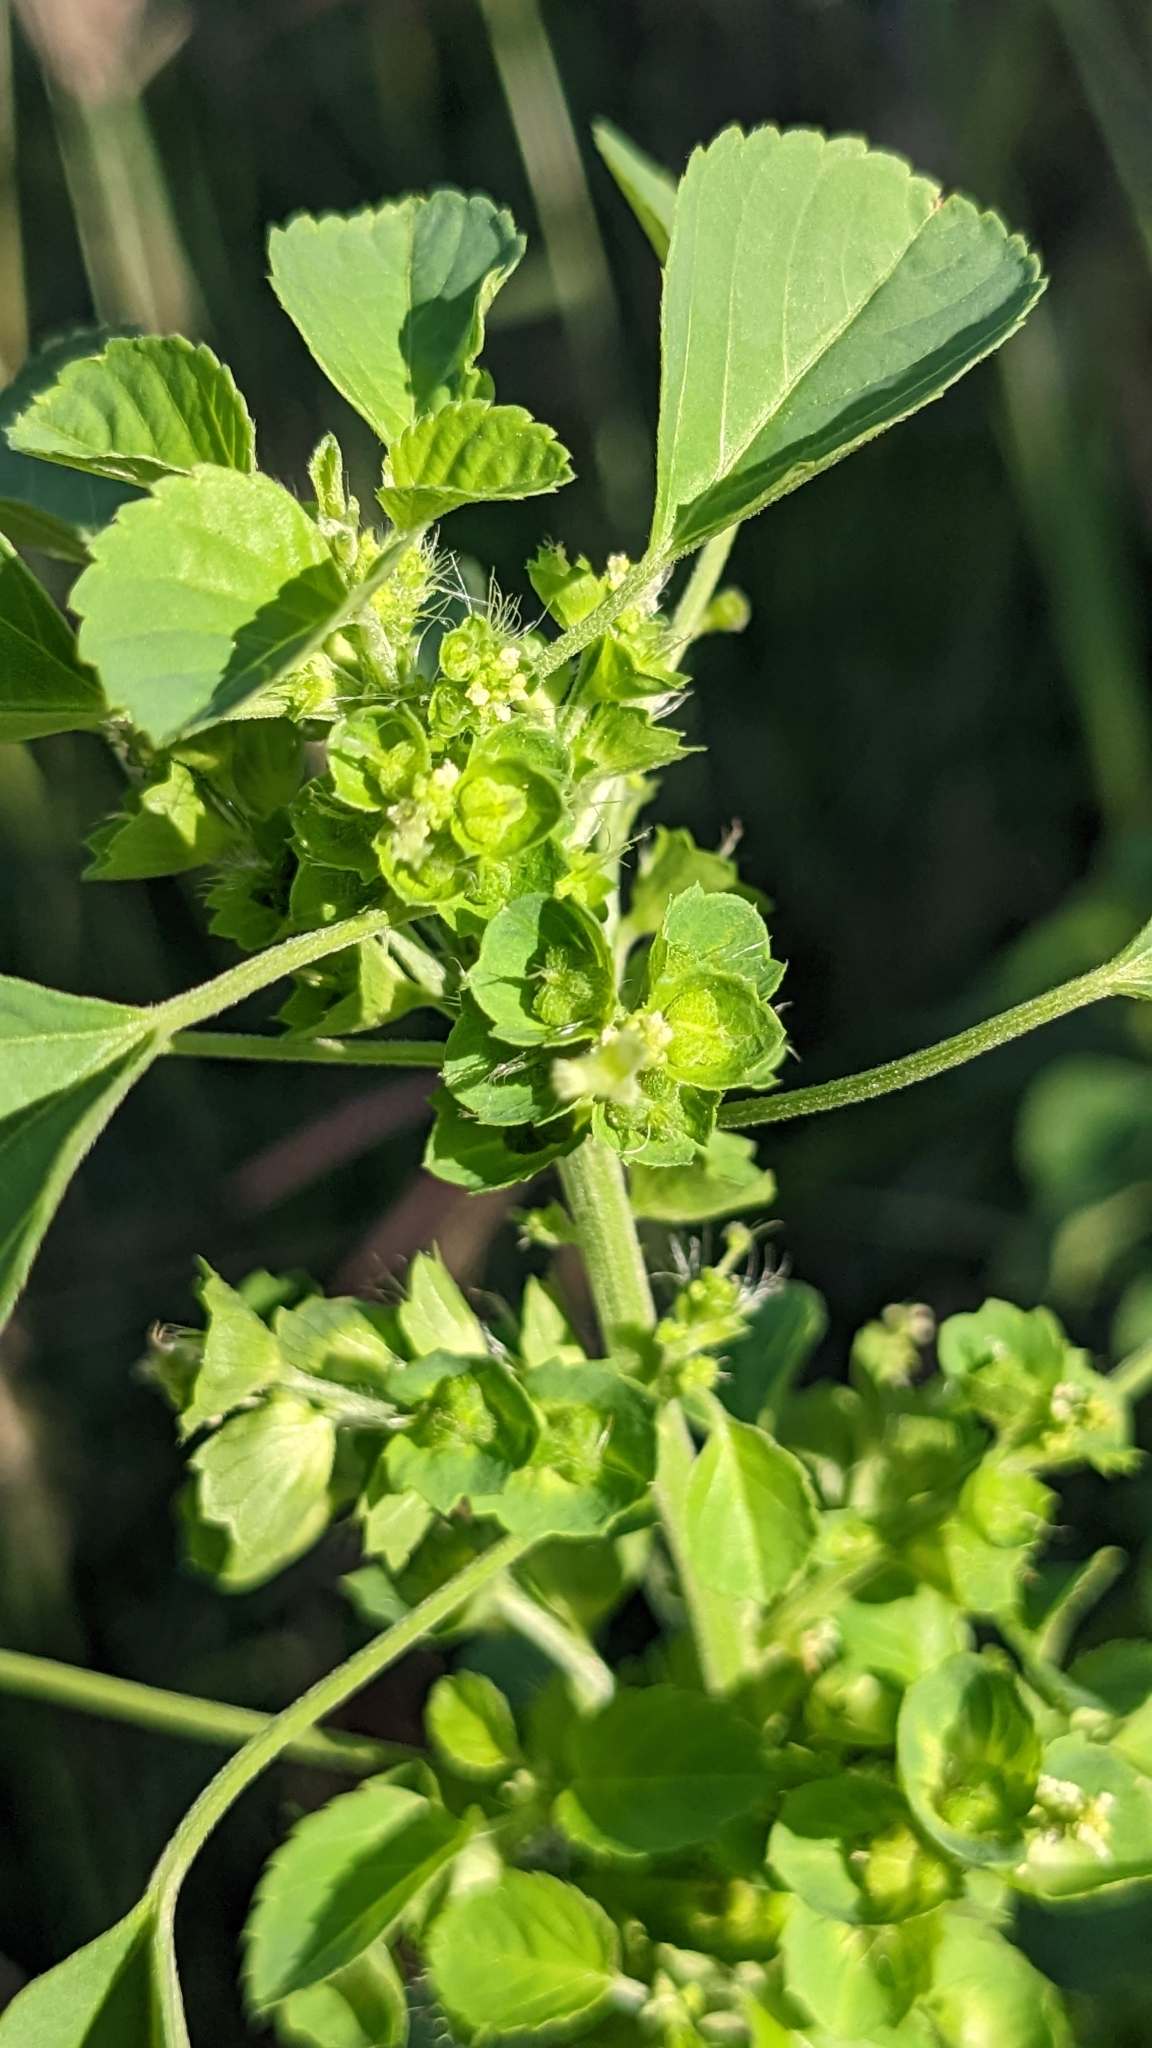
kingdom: Plantae
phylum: Tracheophyta
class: Magnoliopsida
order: Malpighiales
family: Euphorbiaceae
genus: Acalypha
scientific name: Acalypha indica
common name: Indian acalypha
